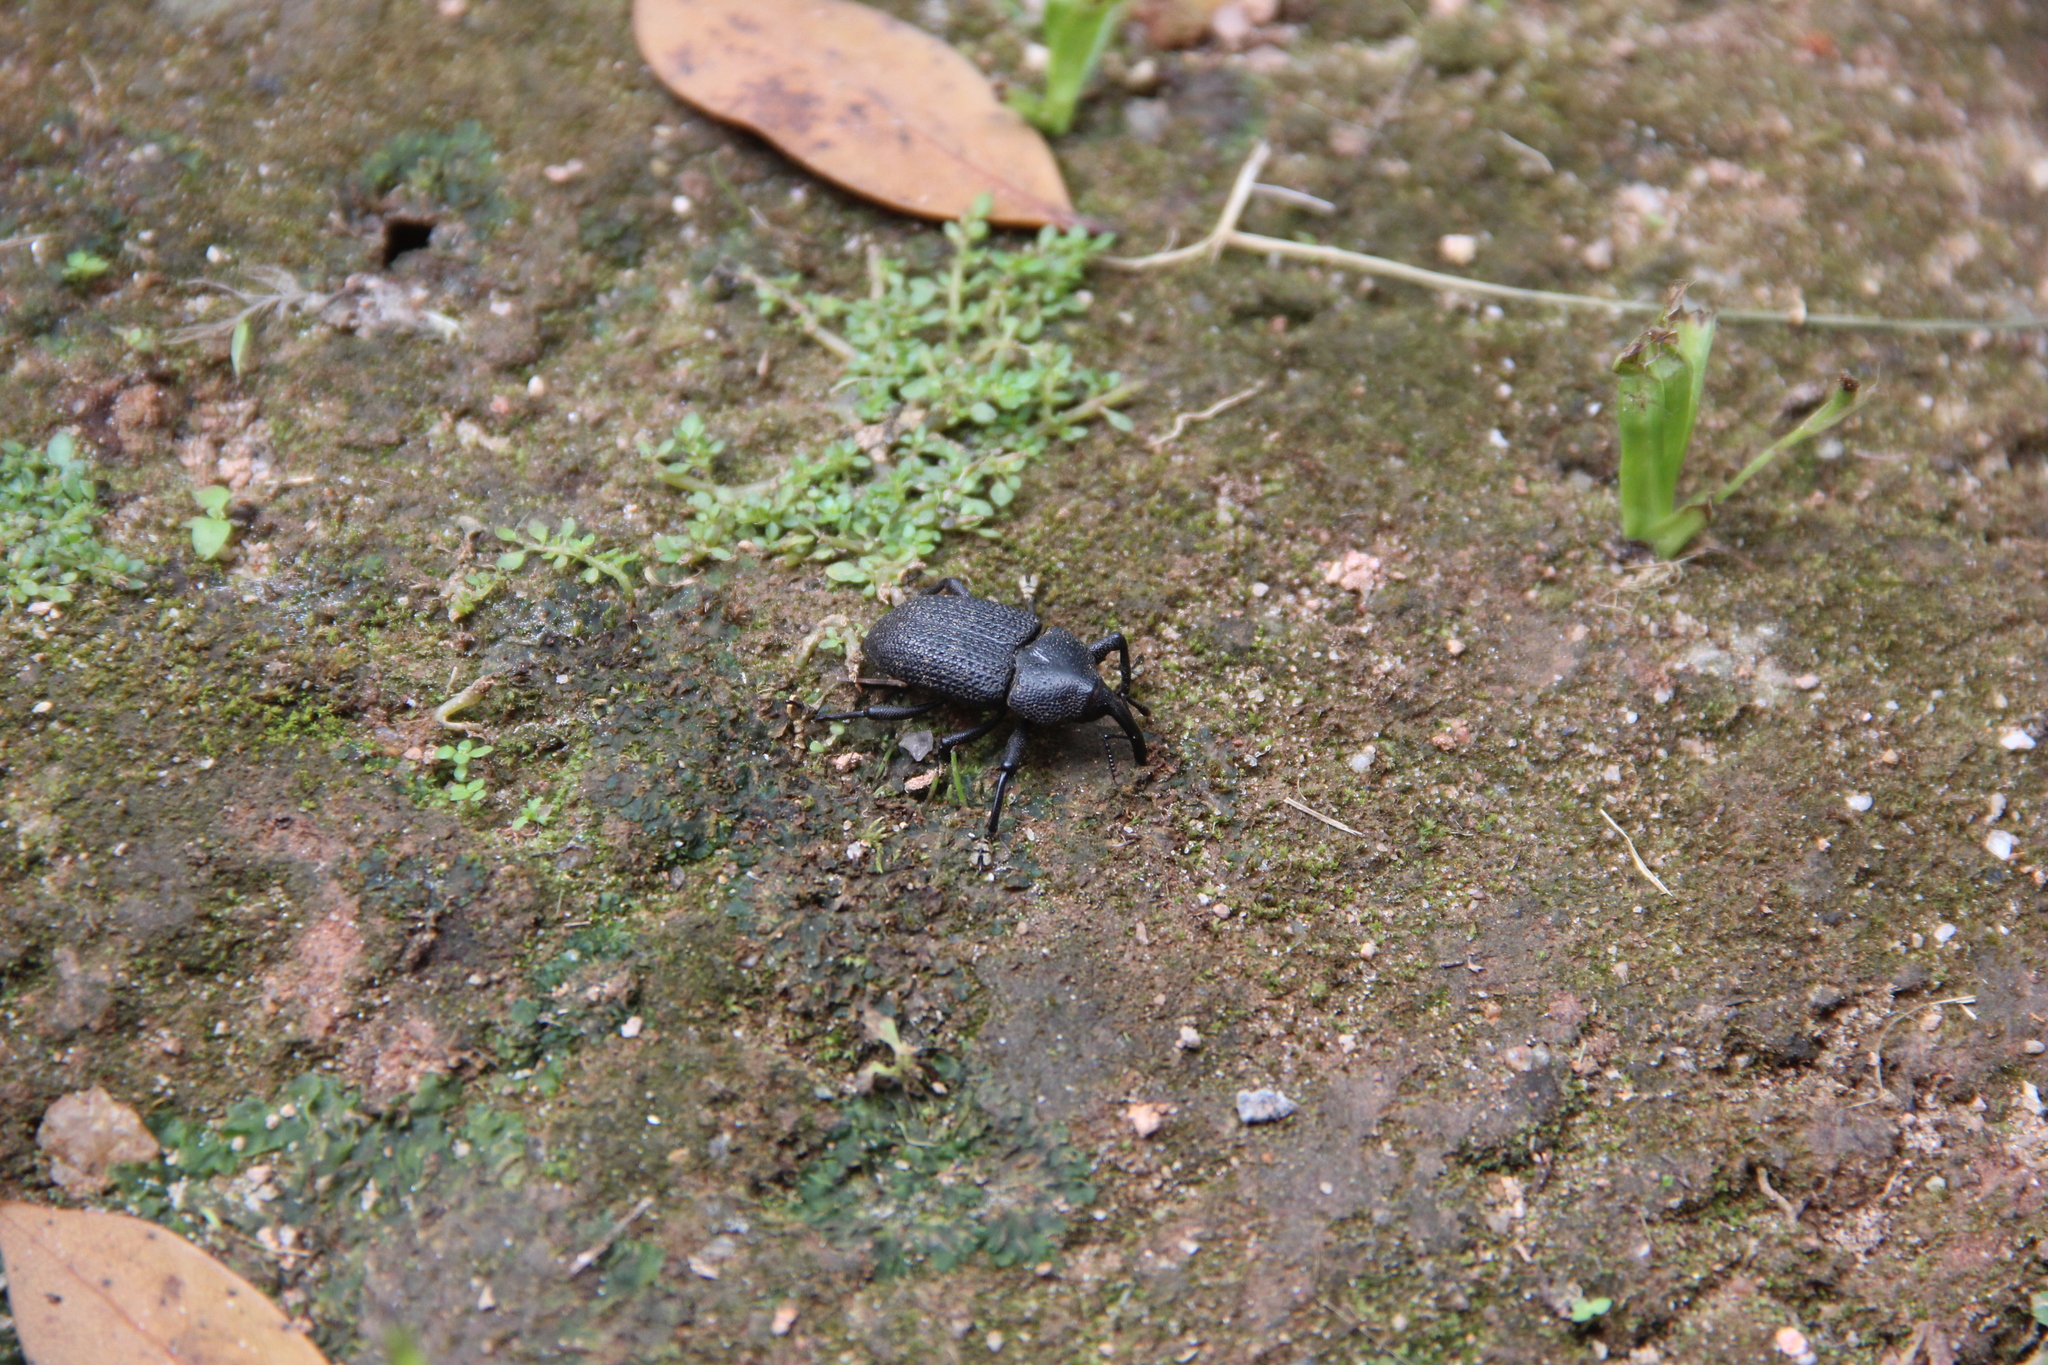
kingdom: Animalia
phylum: Arthropoda
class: Insecta
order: Coleoptera
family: Curculionidae
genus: Homalinotus
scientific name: Homalinotus coriaceus
